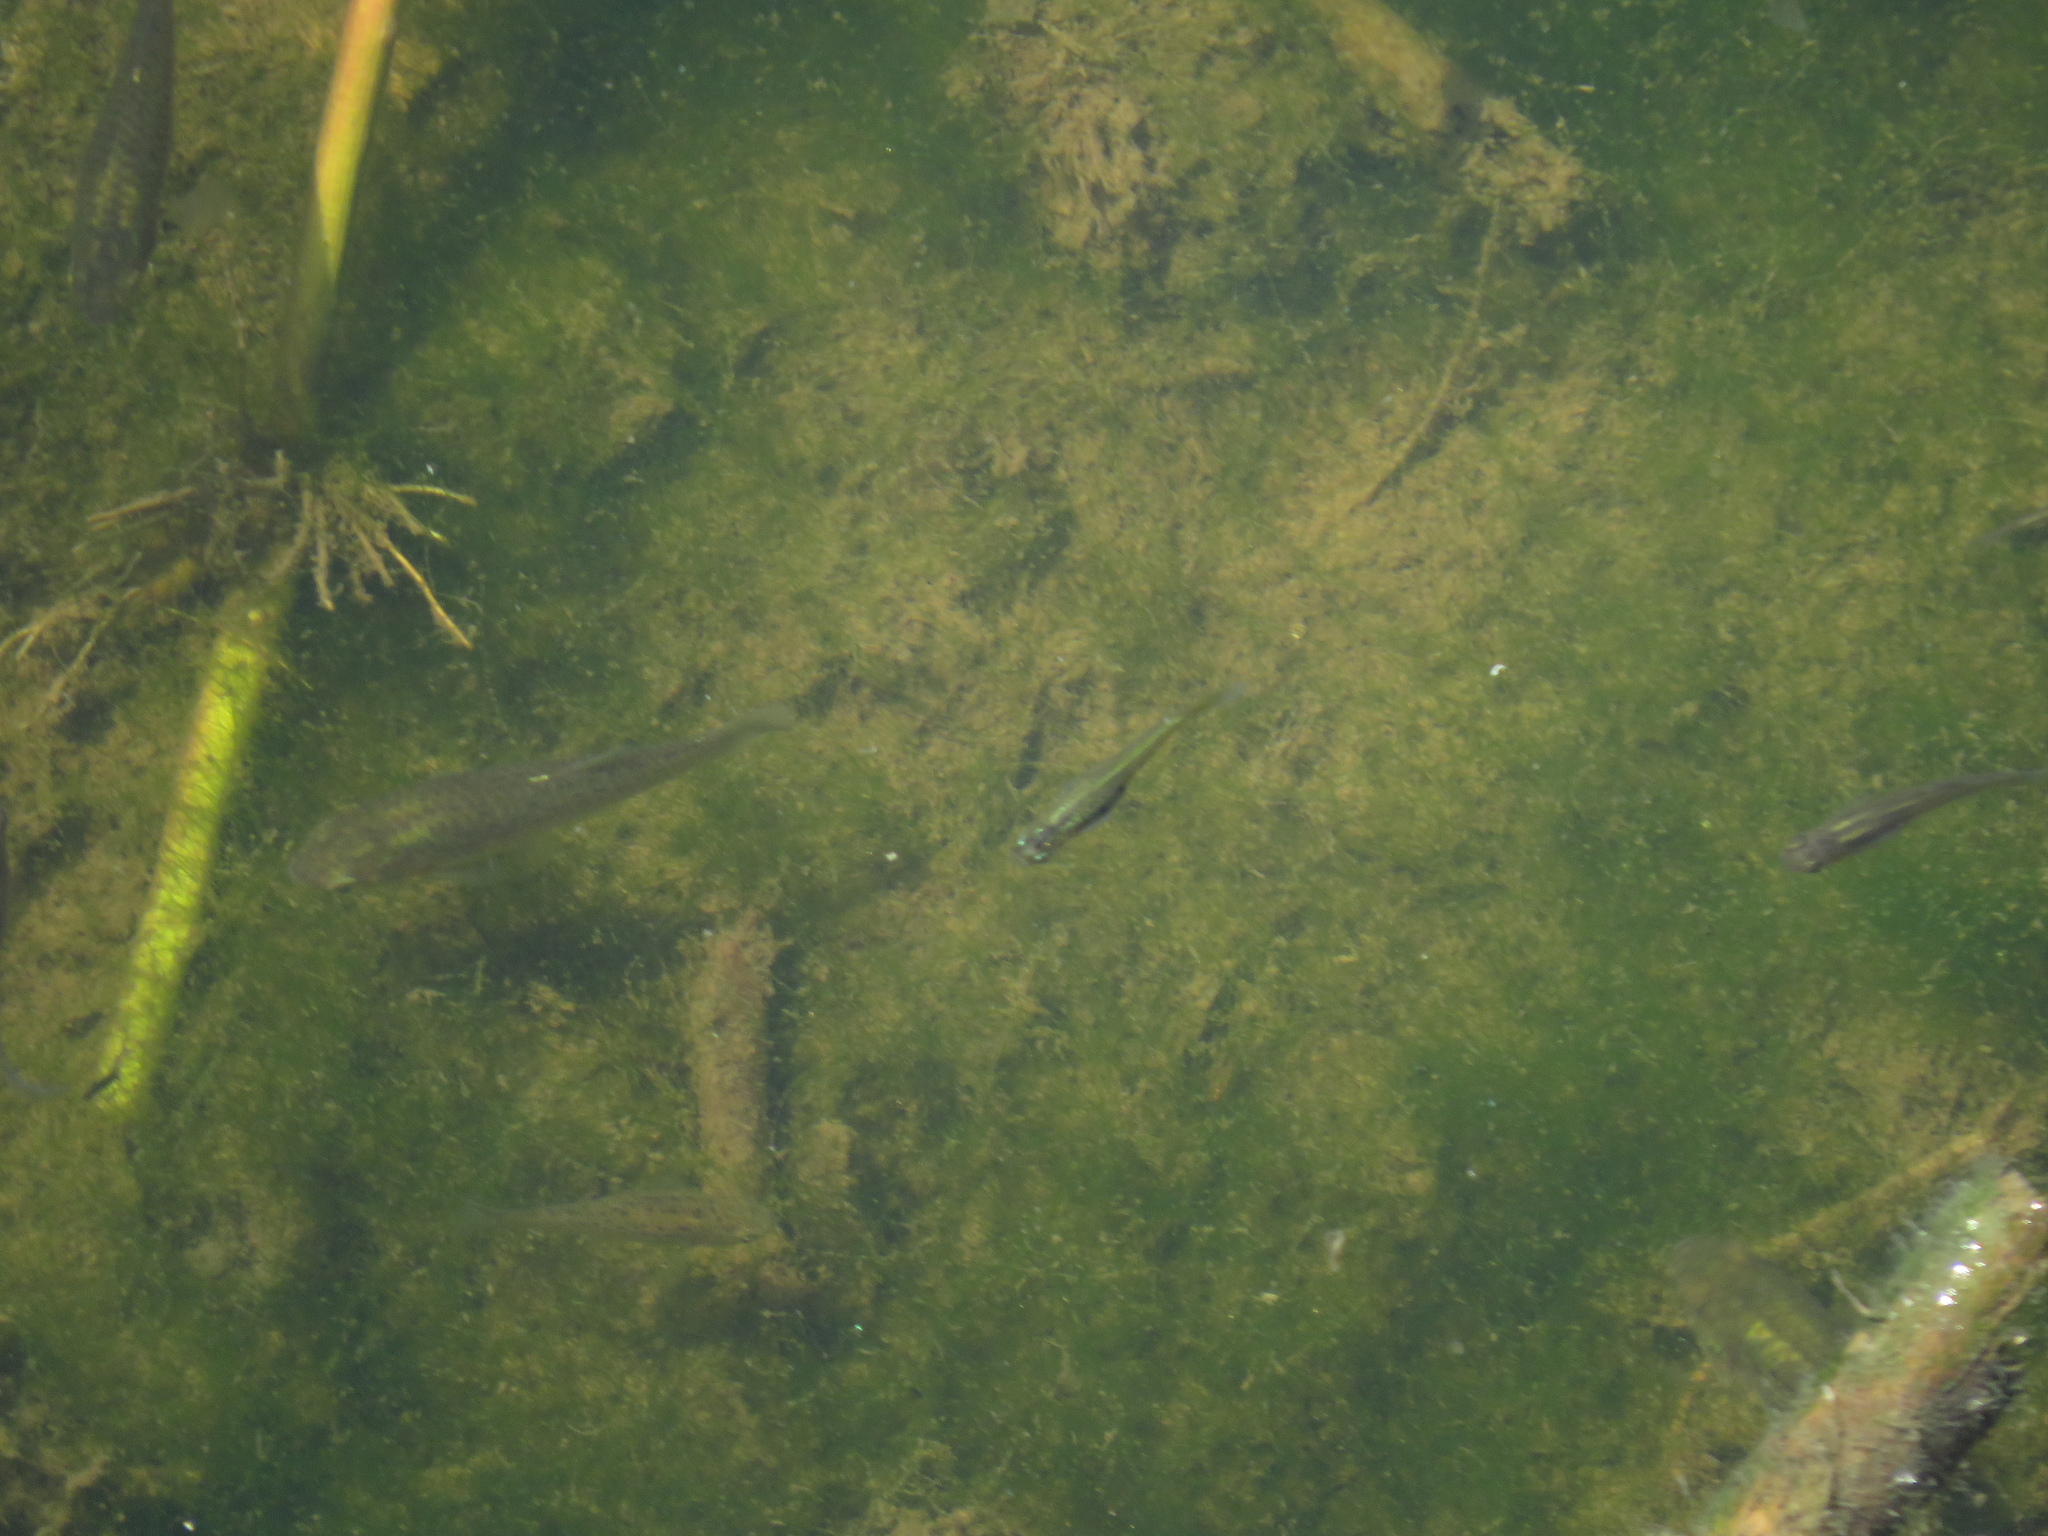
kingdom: Animalia
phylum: Chordata
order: Cyprinodontiformes
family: Poeciliidae
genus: Cnesterodon
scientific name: Cnesterodon decemmaculatus
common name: Ten spotted live-bearer
